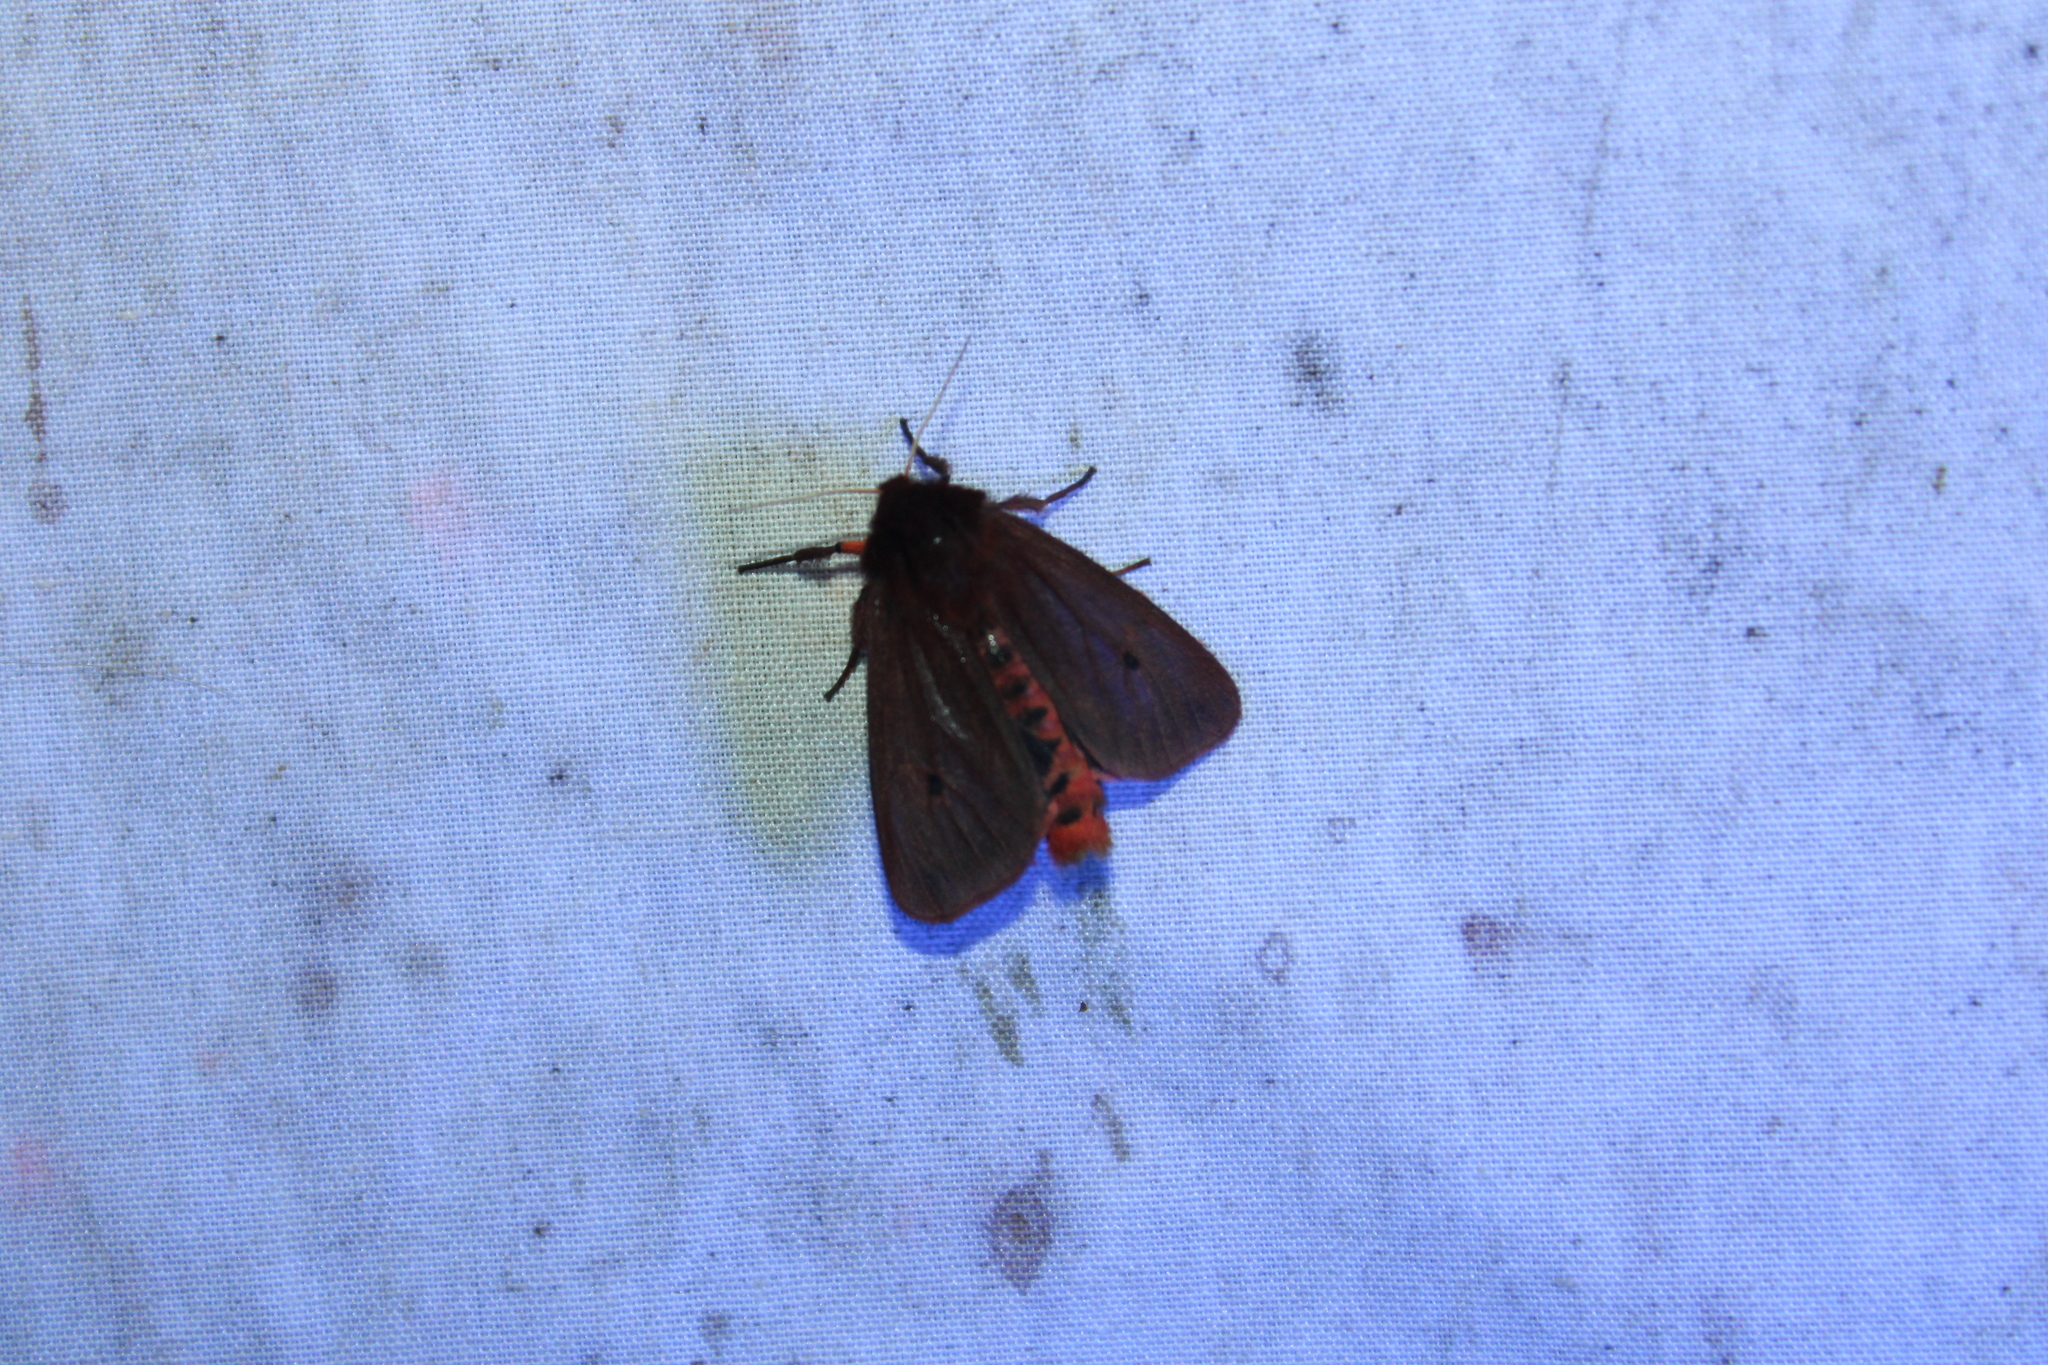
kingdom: Animalia
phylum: Arthropoda
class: Insecta
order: Lepidoptera
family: Erebidae
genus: Phragmatobia
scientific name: Phragmatobia fuliginosa
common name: Ruby tiger
